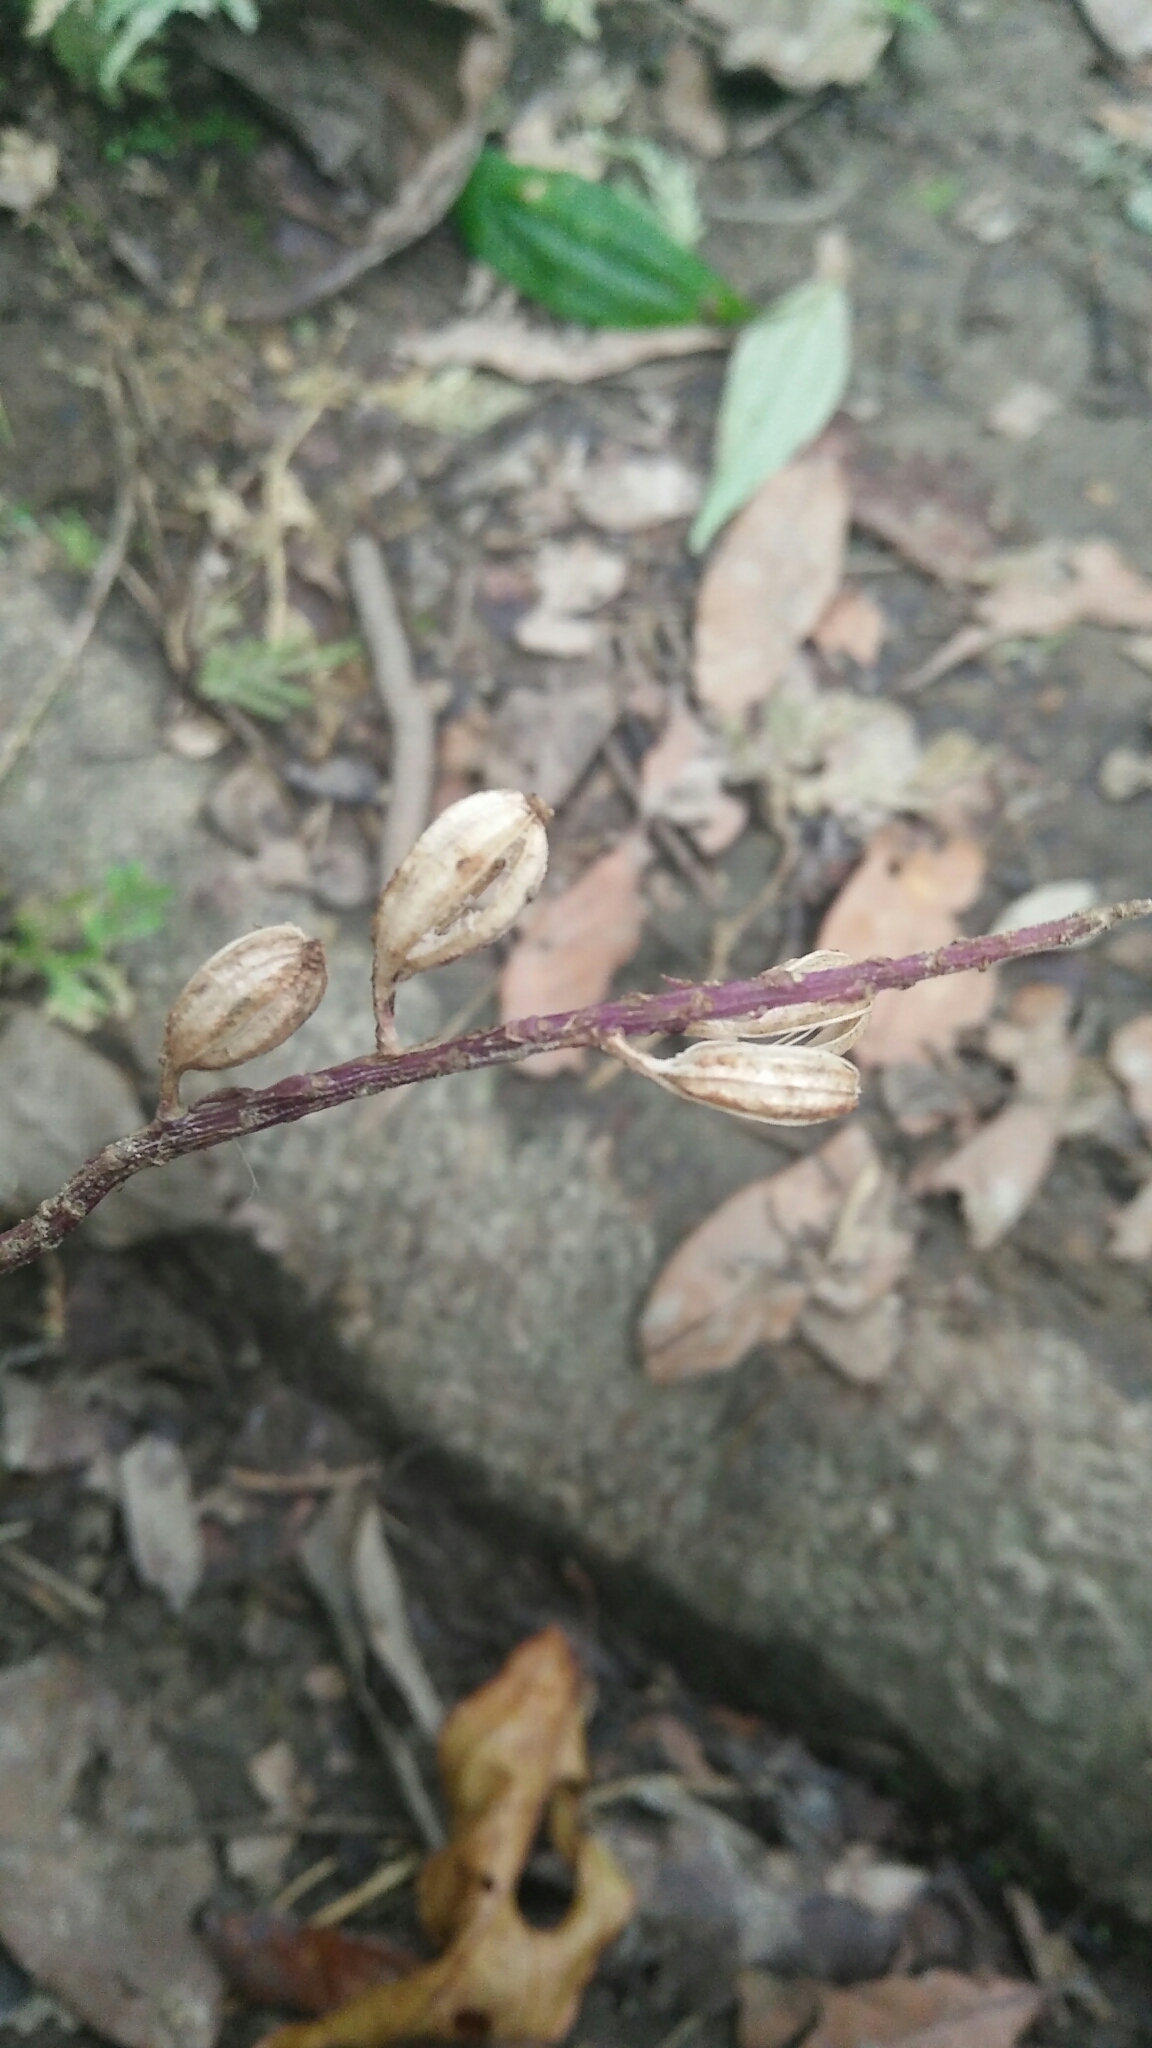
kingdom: Plantae
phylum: Tracheophyta
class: Liliopsida
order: Asparagales
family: Orchidaceae
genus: Crepidium
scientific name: Crepidium roohutuensis
